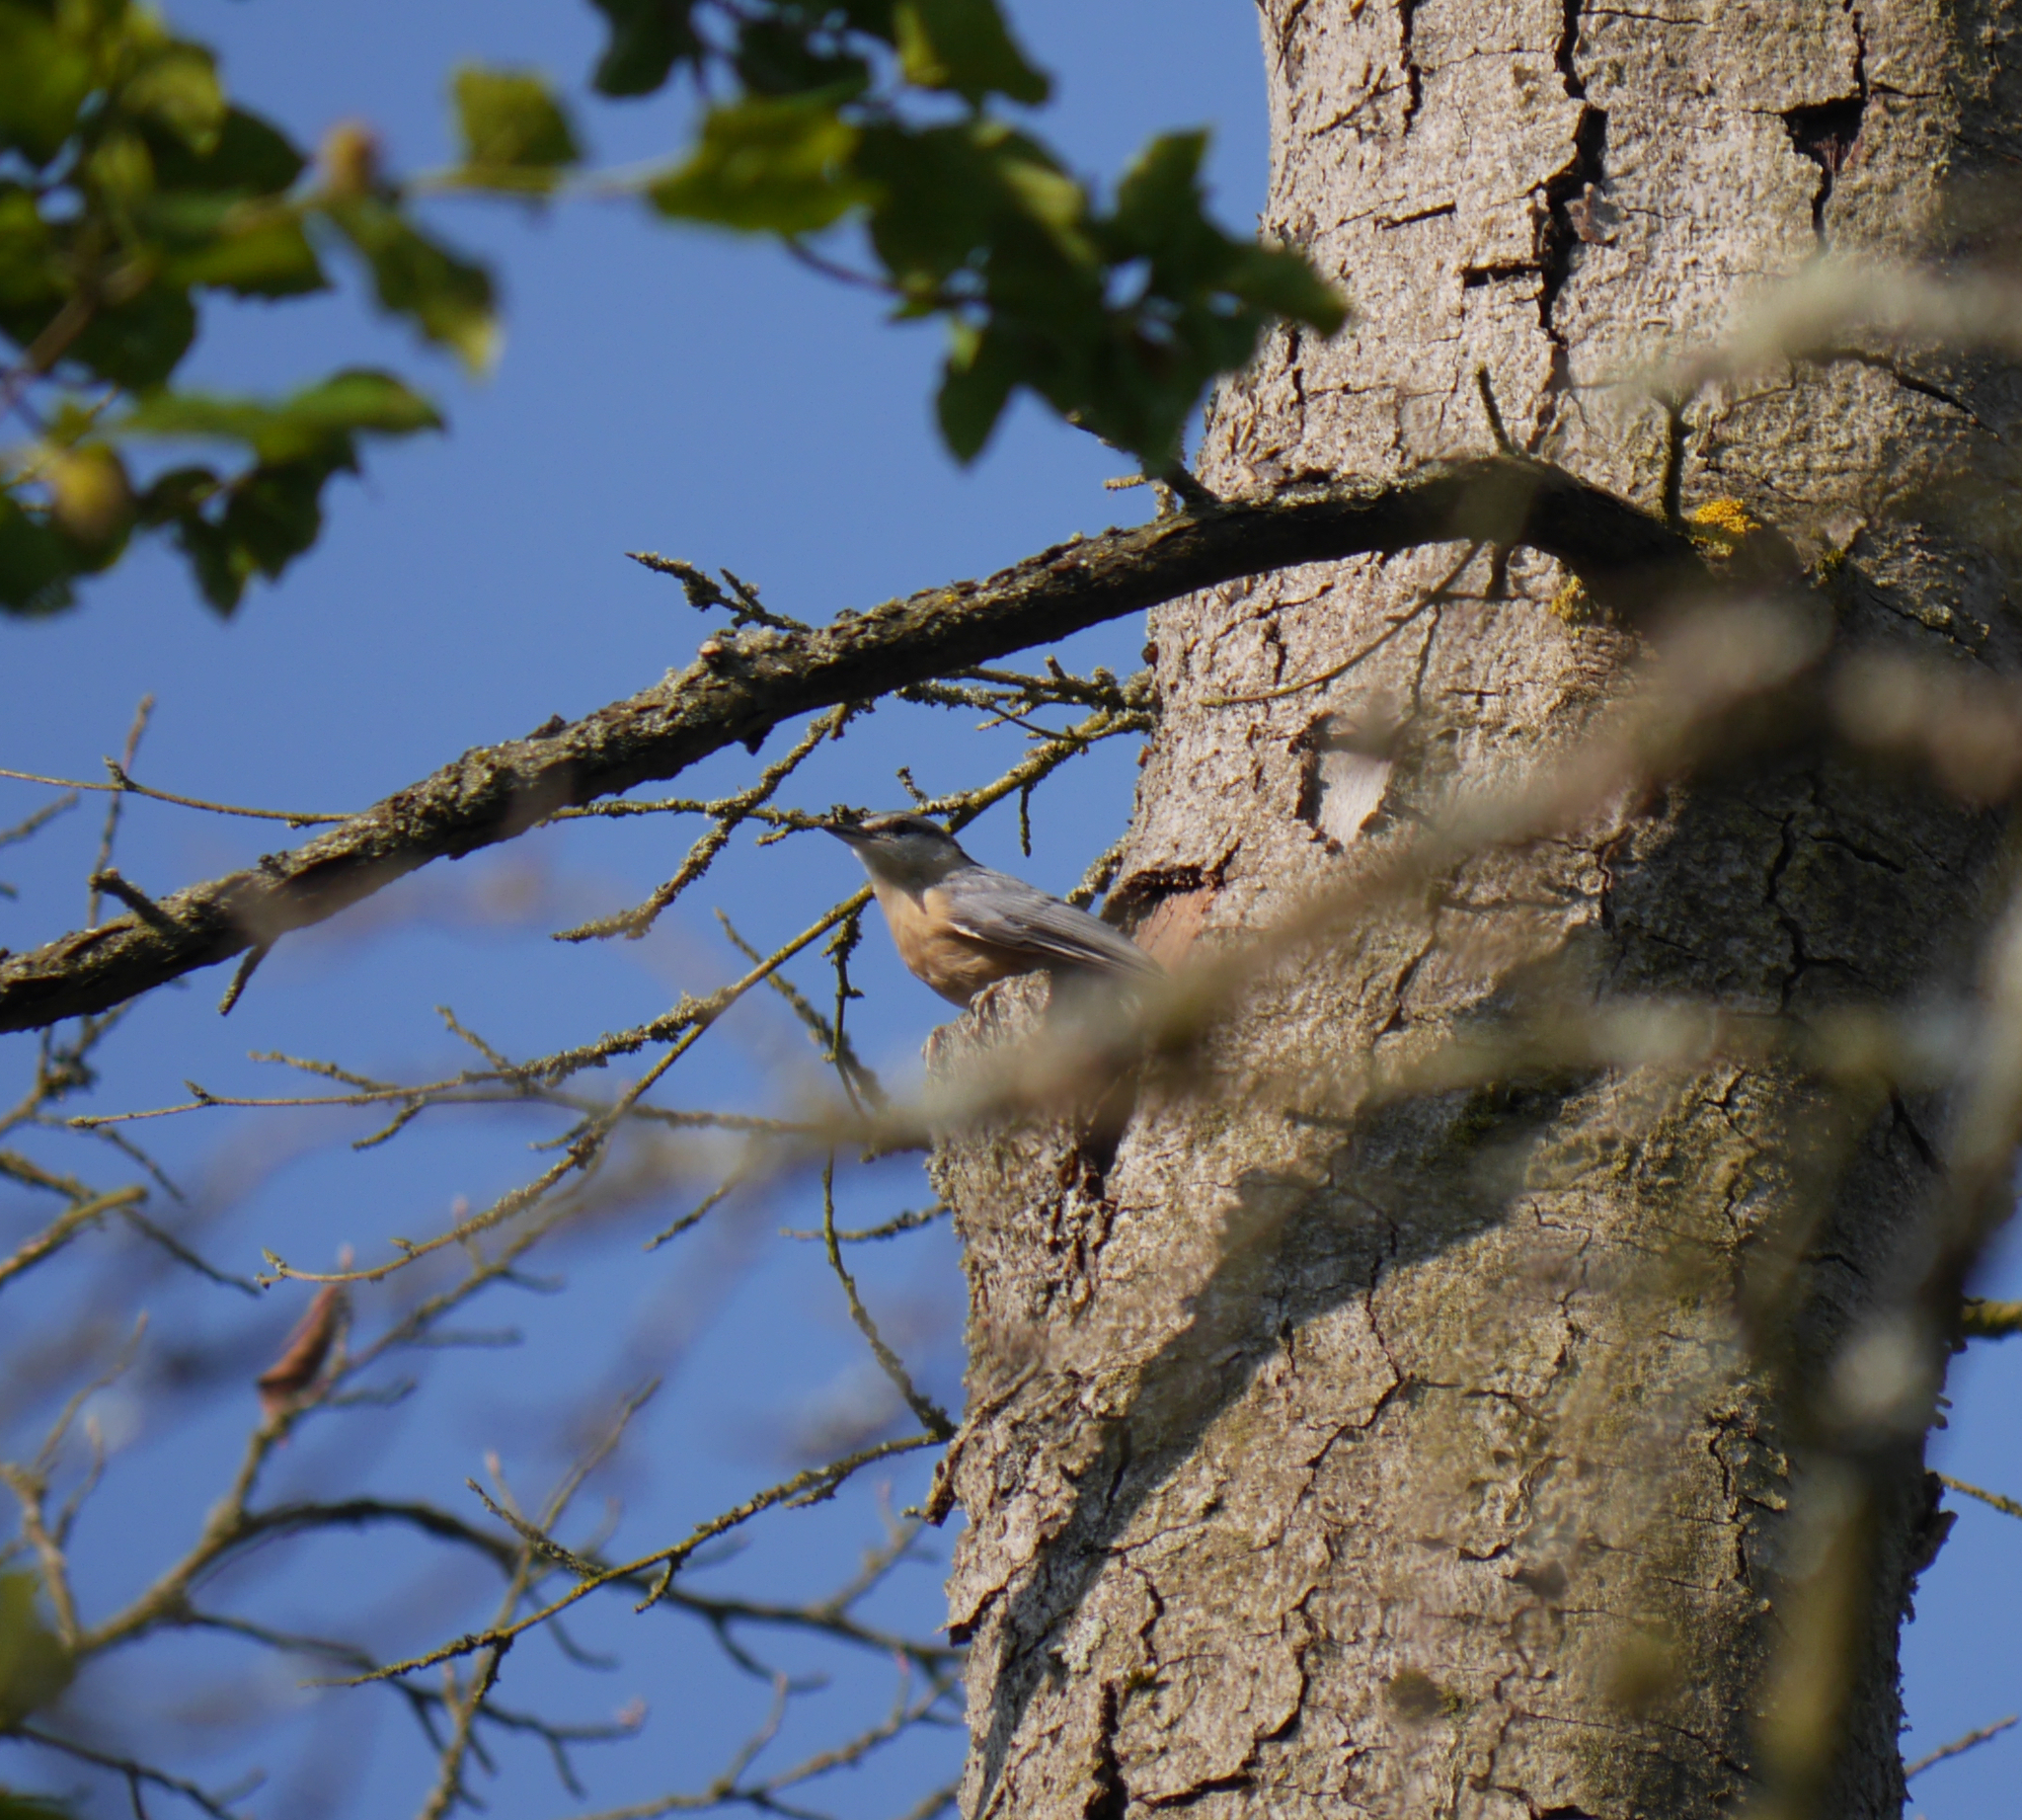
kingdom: Animalia
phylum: Chordata
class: Aves
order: Passeriformes
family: Sittidae
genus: Sitta
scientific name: Sitta europaea
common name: Eurasian nuthatch
